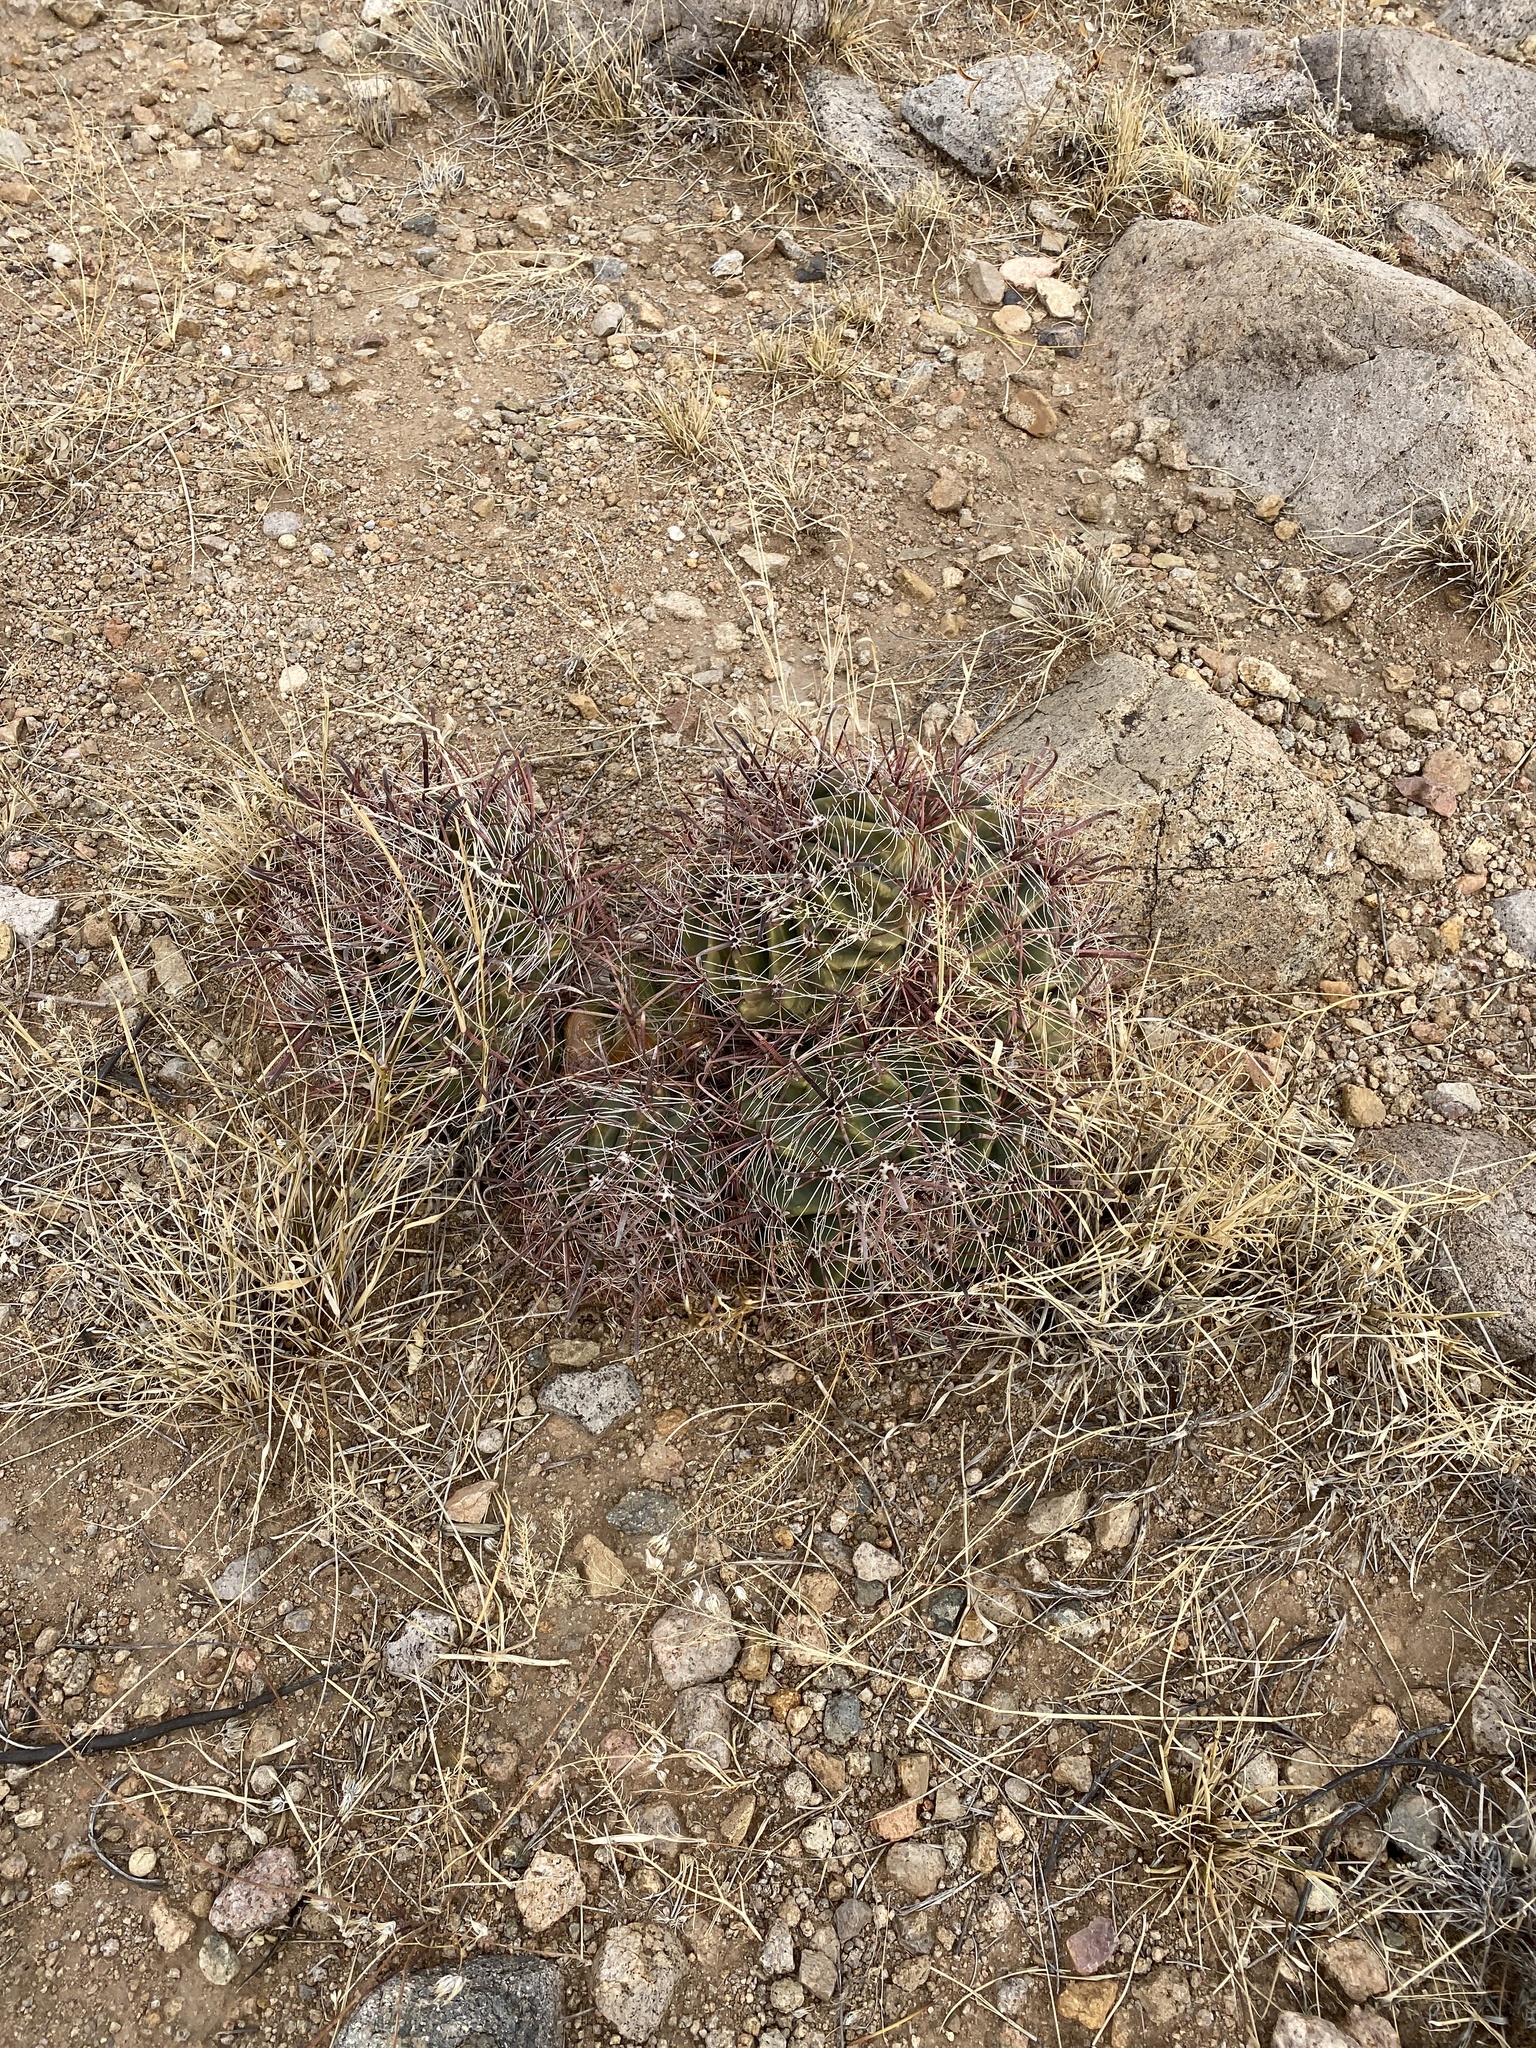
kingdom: Plantae
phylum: Tracheophyta
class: Magnoliopsida
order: Caryophyllales
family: Cactaceae
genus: Ferocactus
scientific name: Ferocactus wislizeni
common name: Candy barrel cactus
